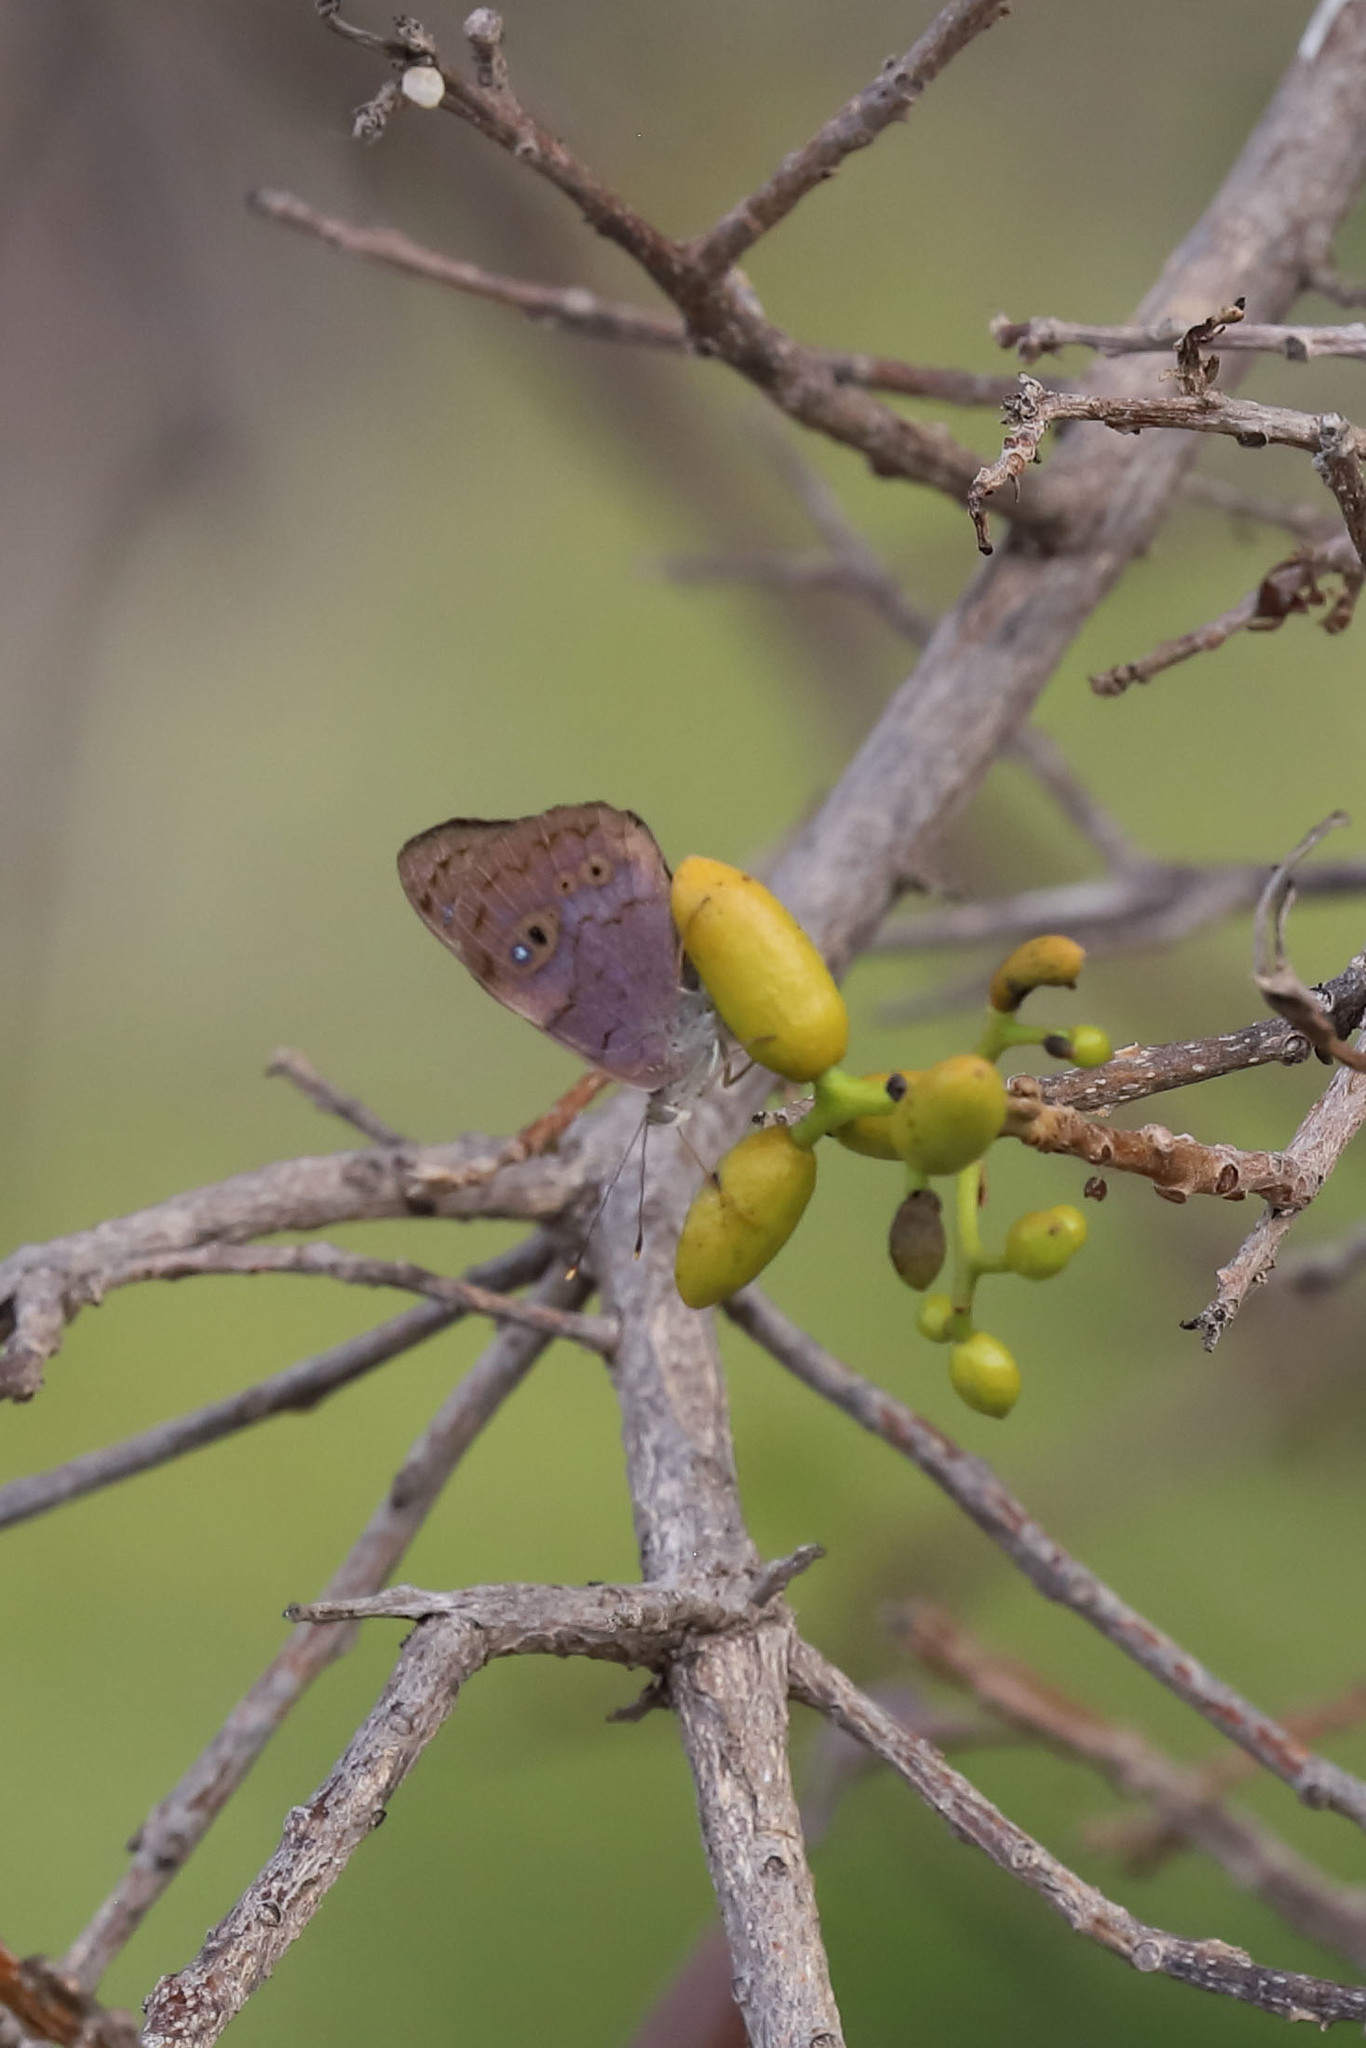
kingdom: Animalia
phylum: Arthropoda
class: Insecta
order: Lepidoptera
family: Nymphalidae
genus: Eunica
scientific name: Eunica monima
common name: Dingy purplewing
